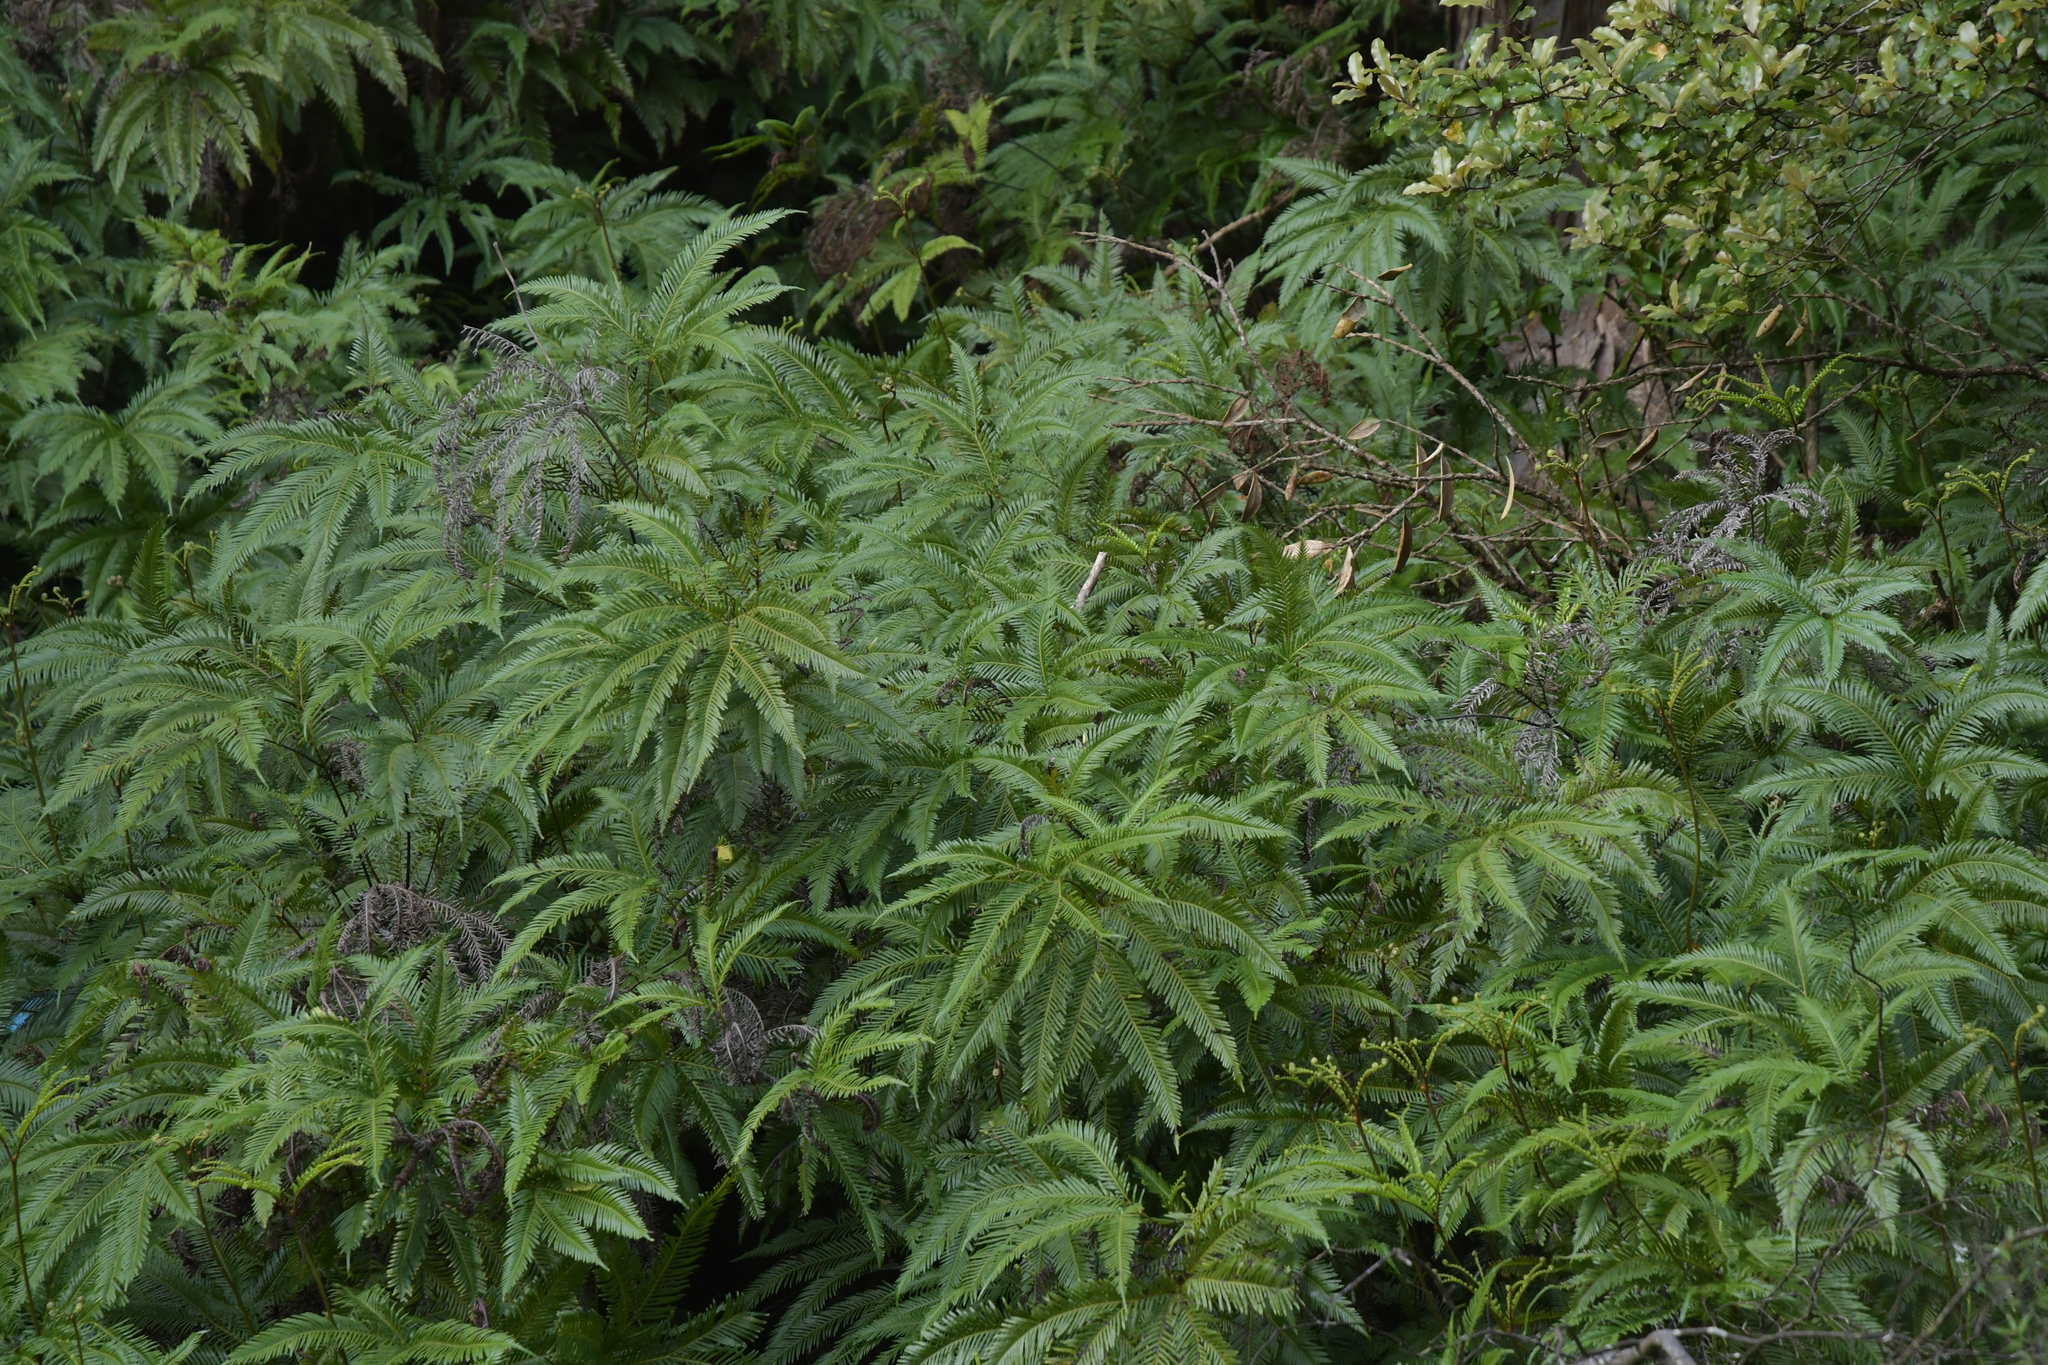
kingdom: Plantae
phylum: Tracheophyta
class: Polypodiopsida
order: Gleicheniales
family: Gleicheniaceae
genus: Sticherus
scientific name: Sticherus flabellatus
